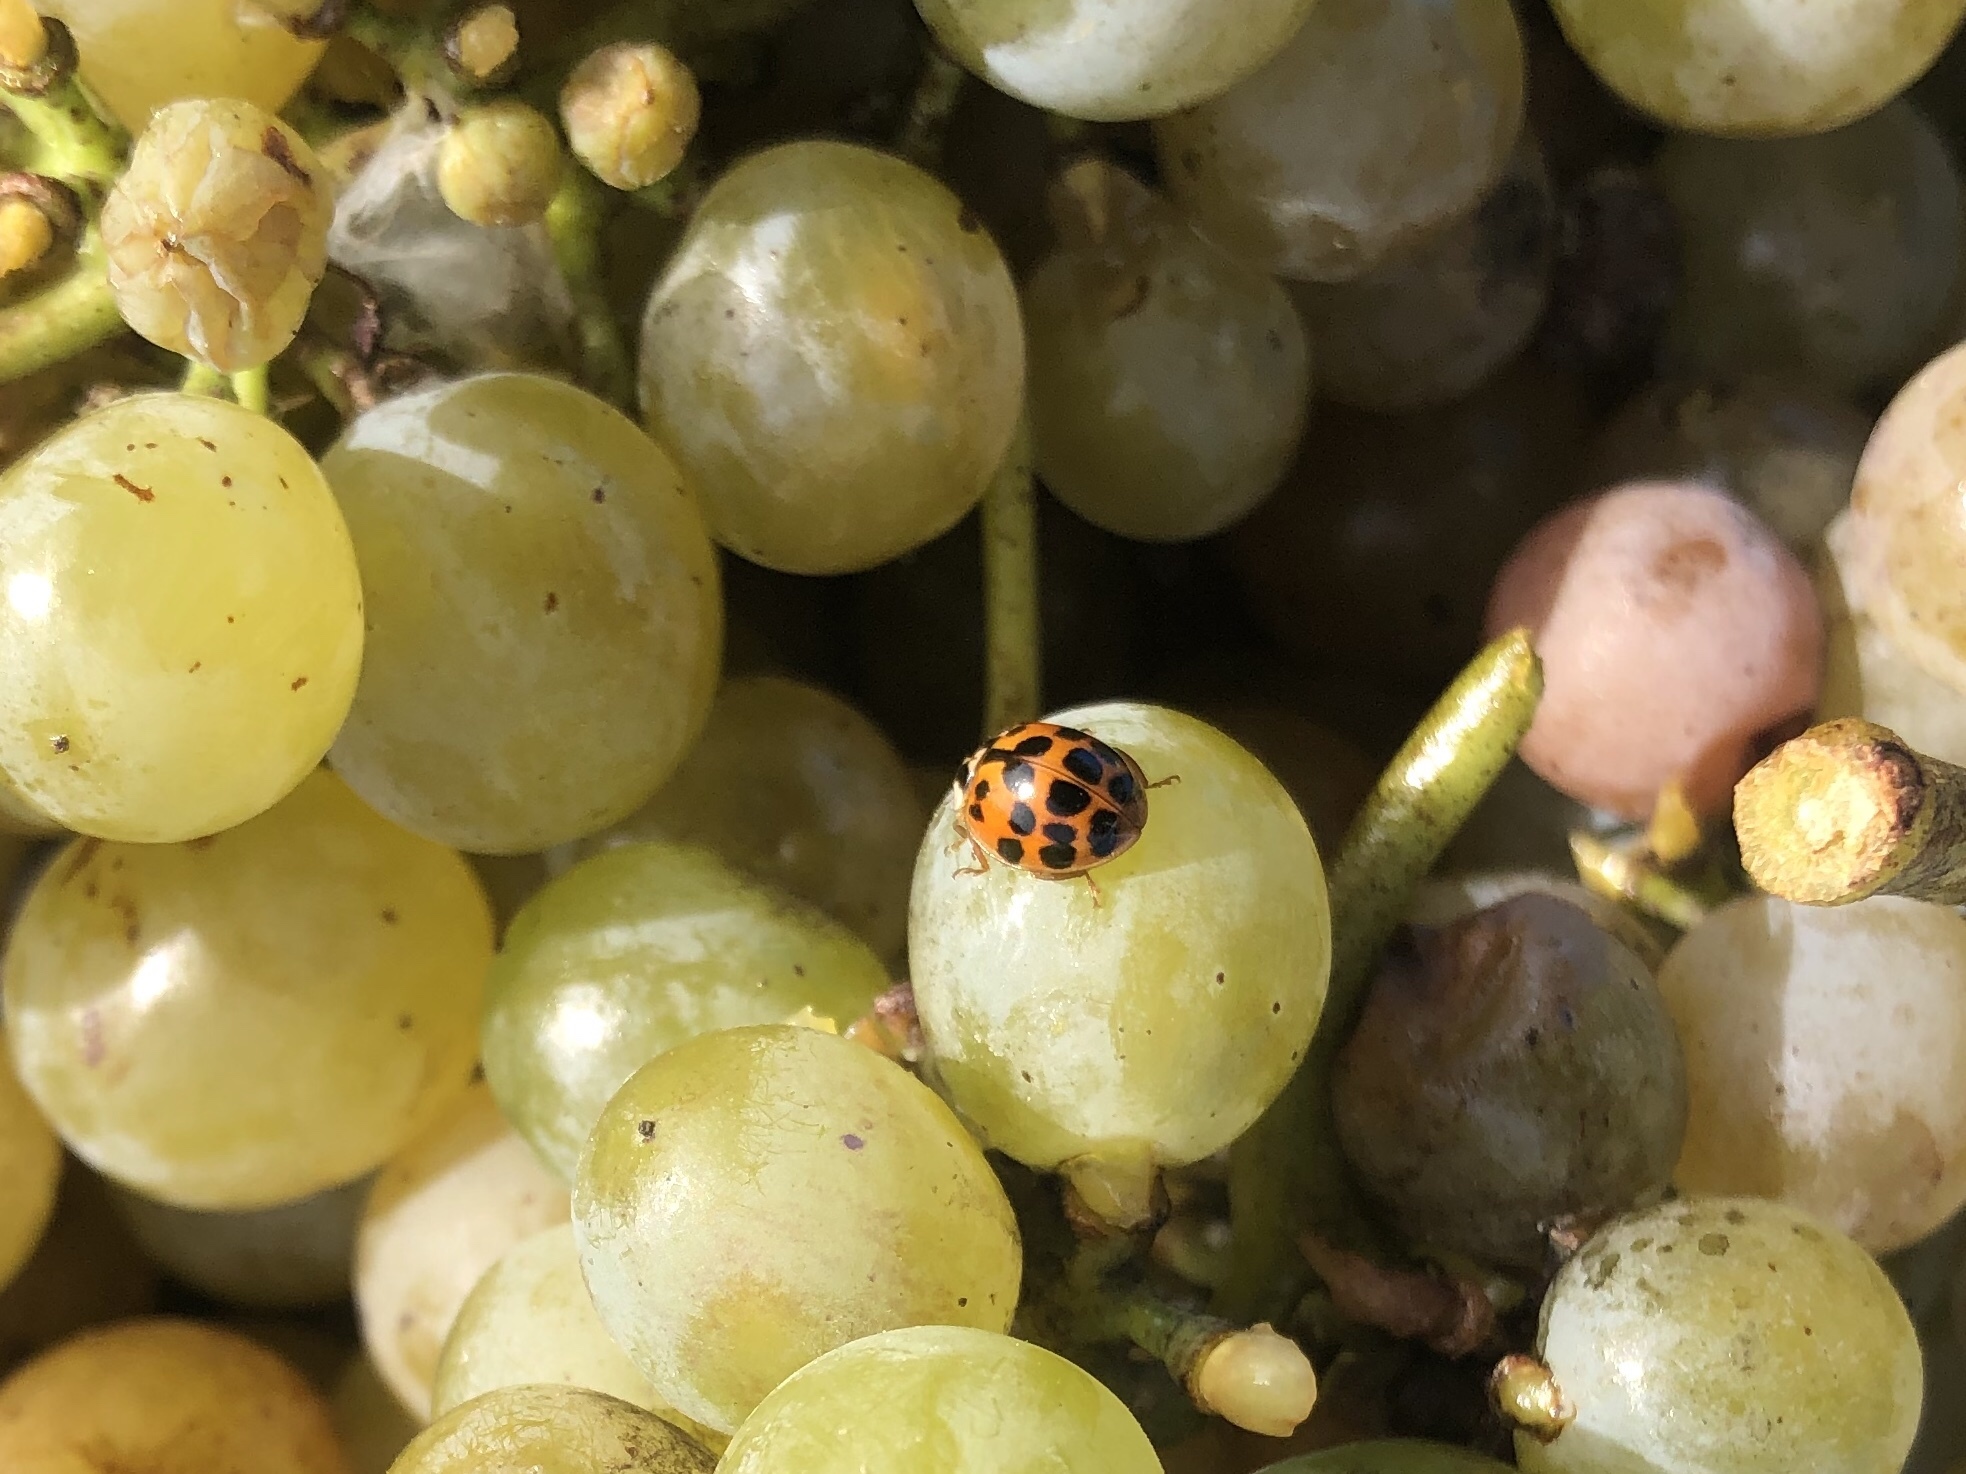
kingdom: Animalia
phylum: Arthropoda
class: Insecta
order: Coleoptera
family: Coccinellidae
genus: Harmonia
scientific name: Harmonia axyridis
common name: Harlequin ladybird
